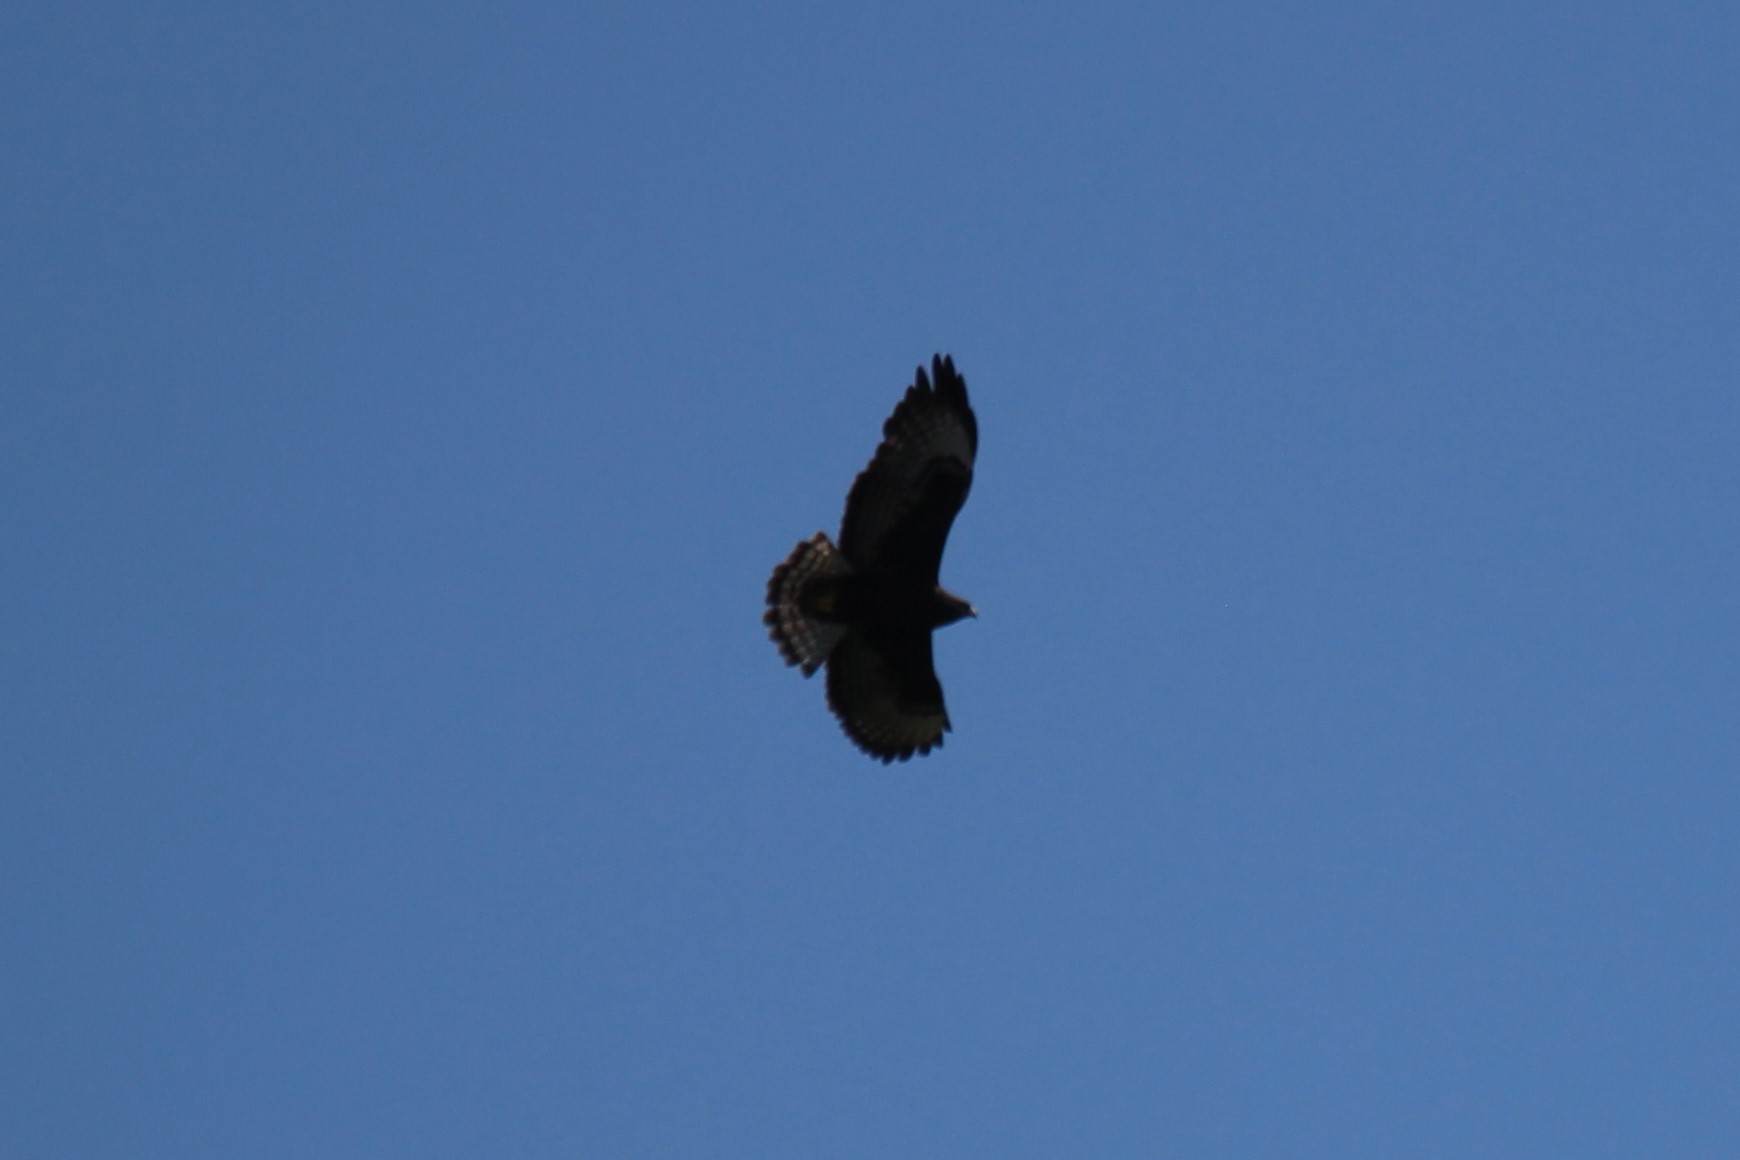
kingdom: Animalia
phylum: Chordata
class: Aves
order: Accipitriformes
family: Accipitridae
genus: Buteo
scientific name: Buteo brachyurus
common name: Short-tailed hawk
